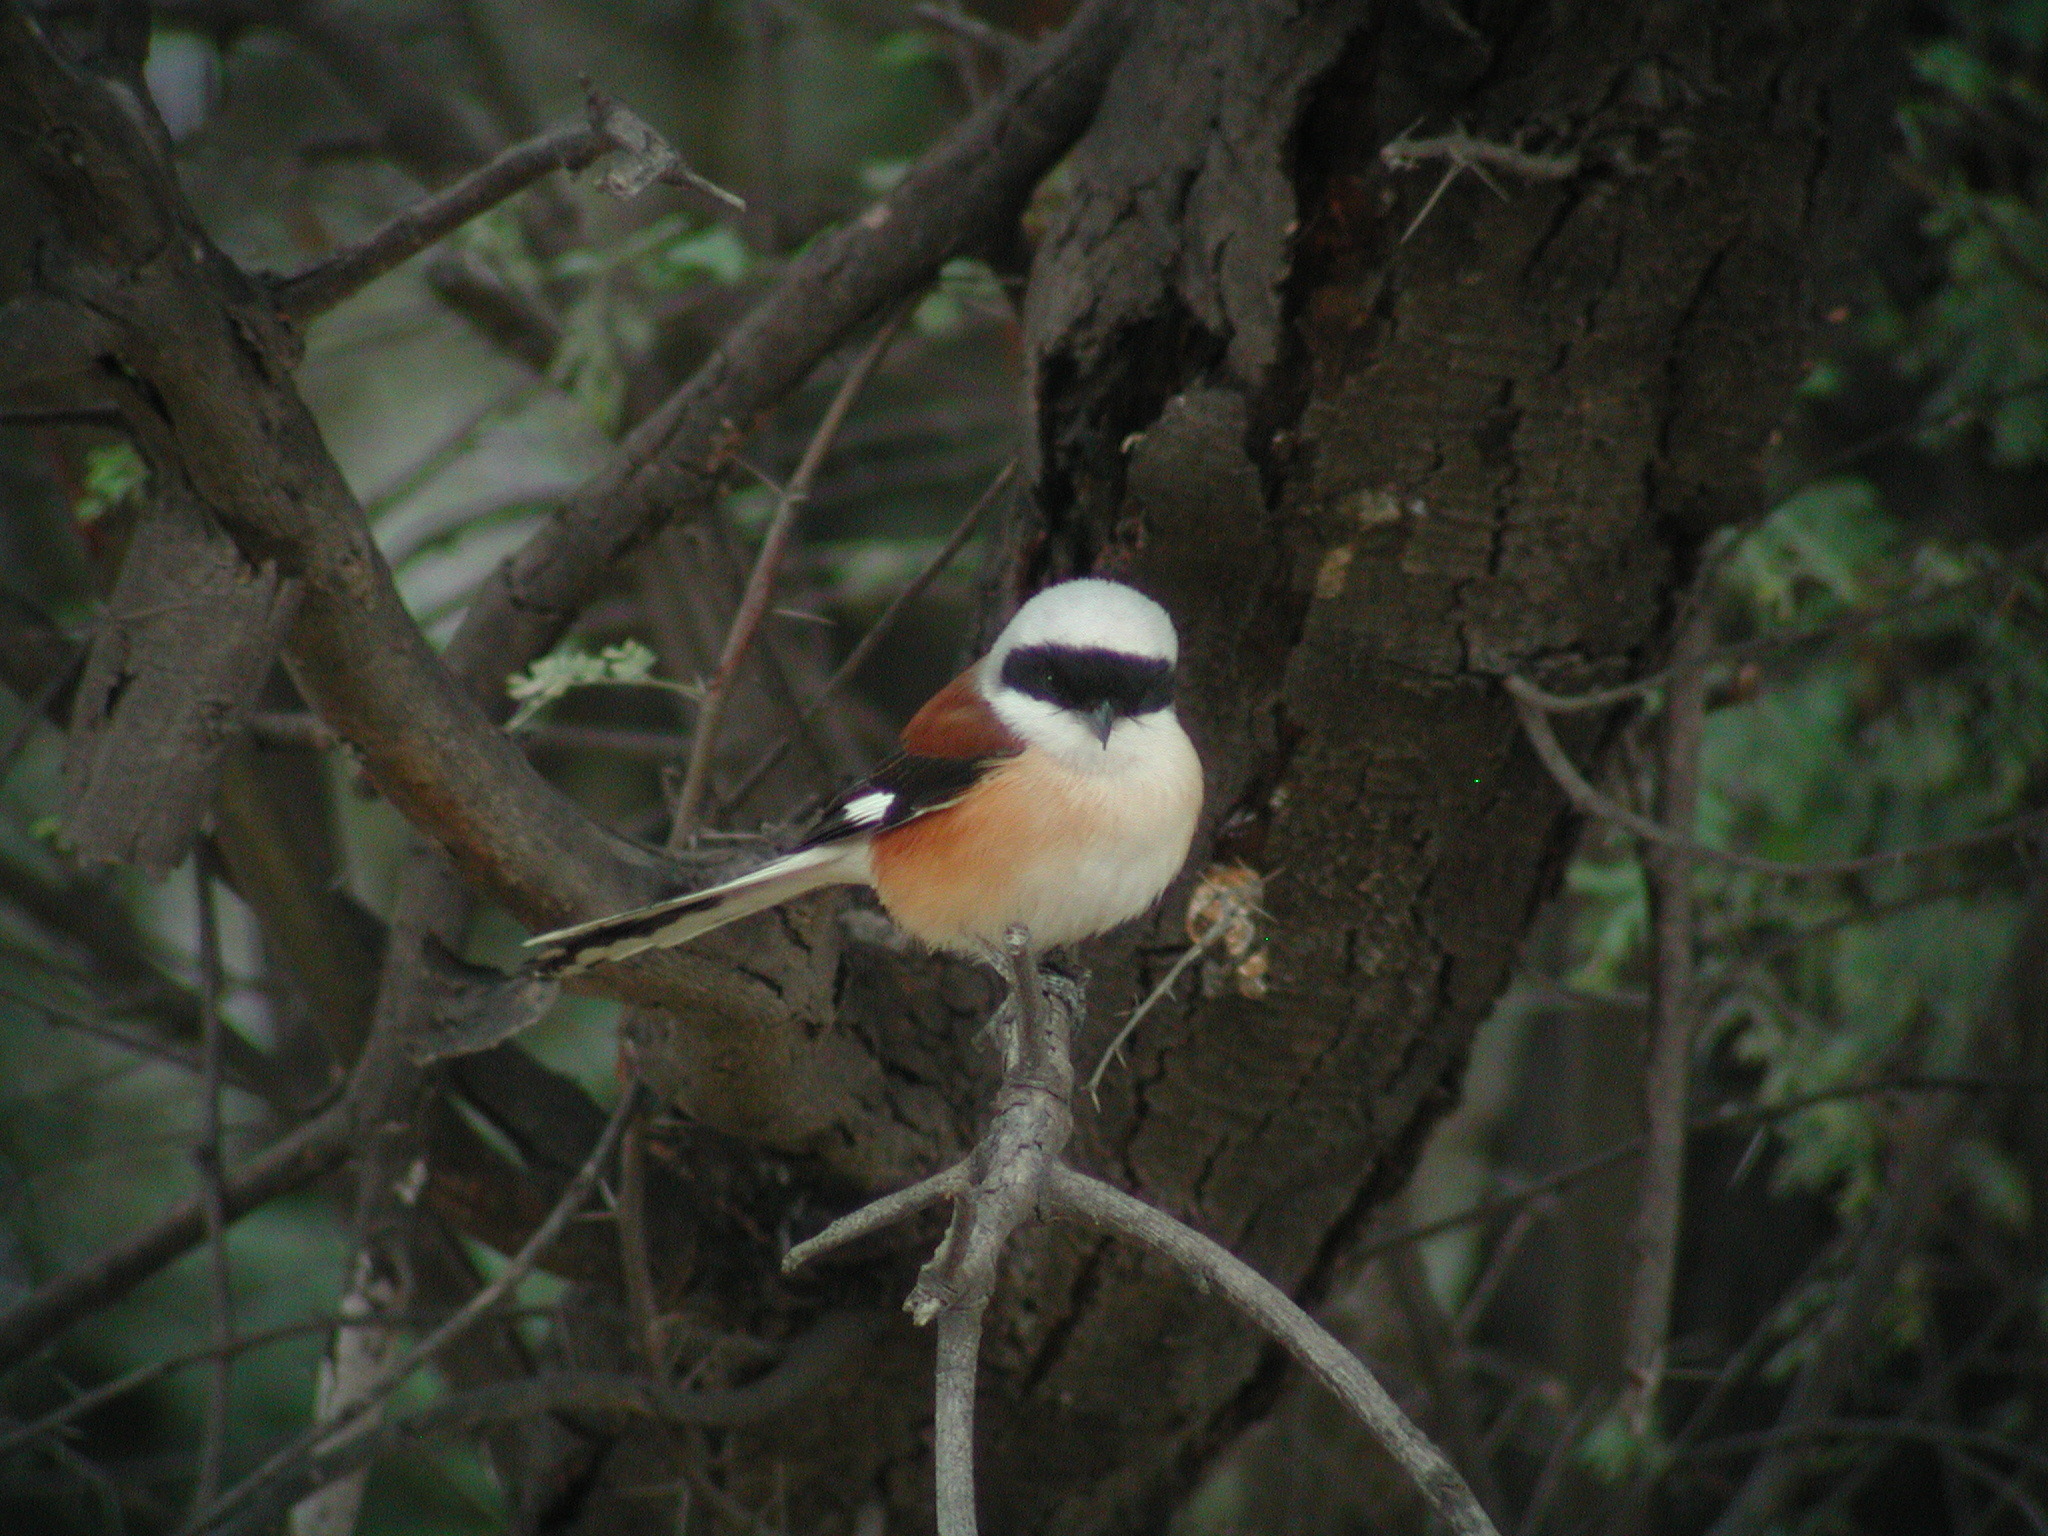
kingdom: Animalia
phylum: Chordata
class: Aves
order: Passeriformes
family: Laniidae
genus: Lanius
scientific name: Lanius vittatus
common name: Bay-backed shrike
